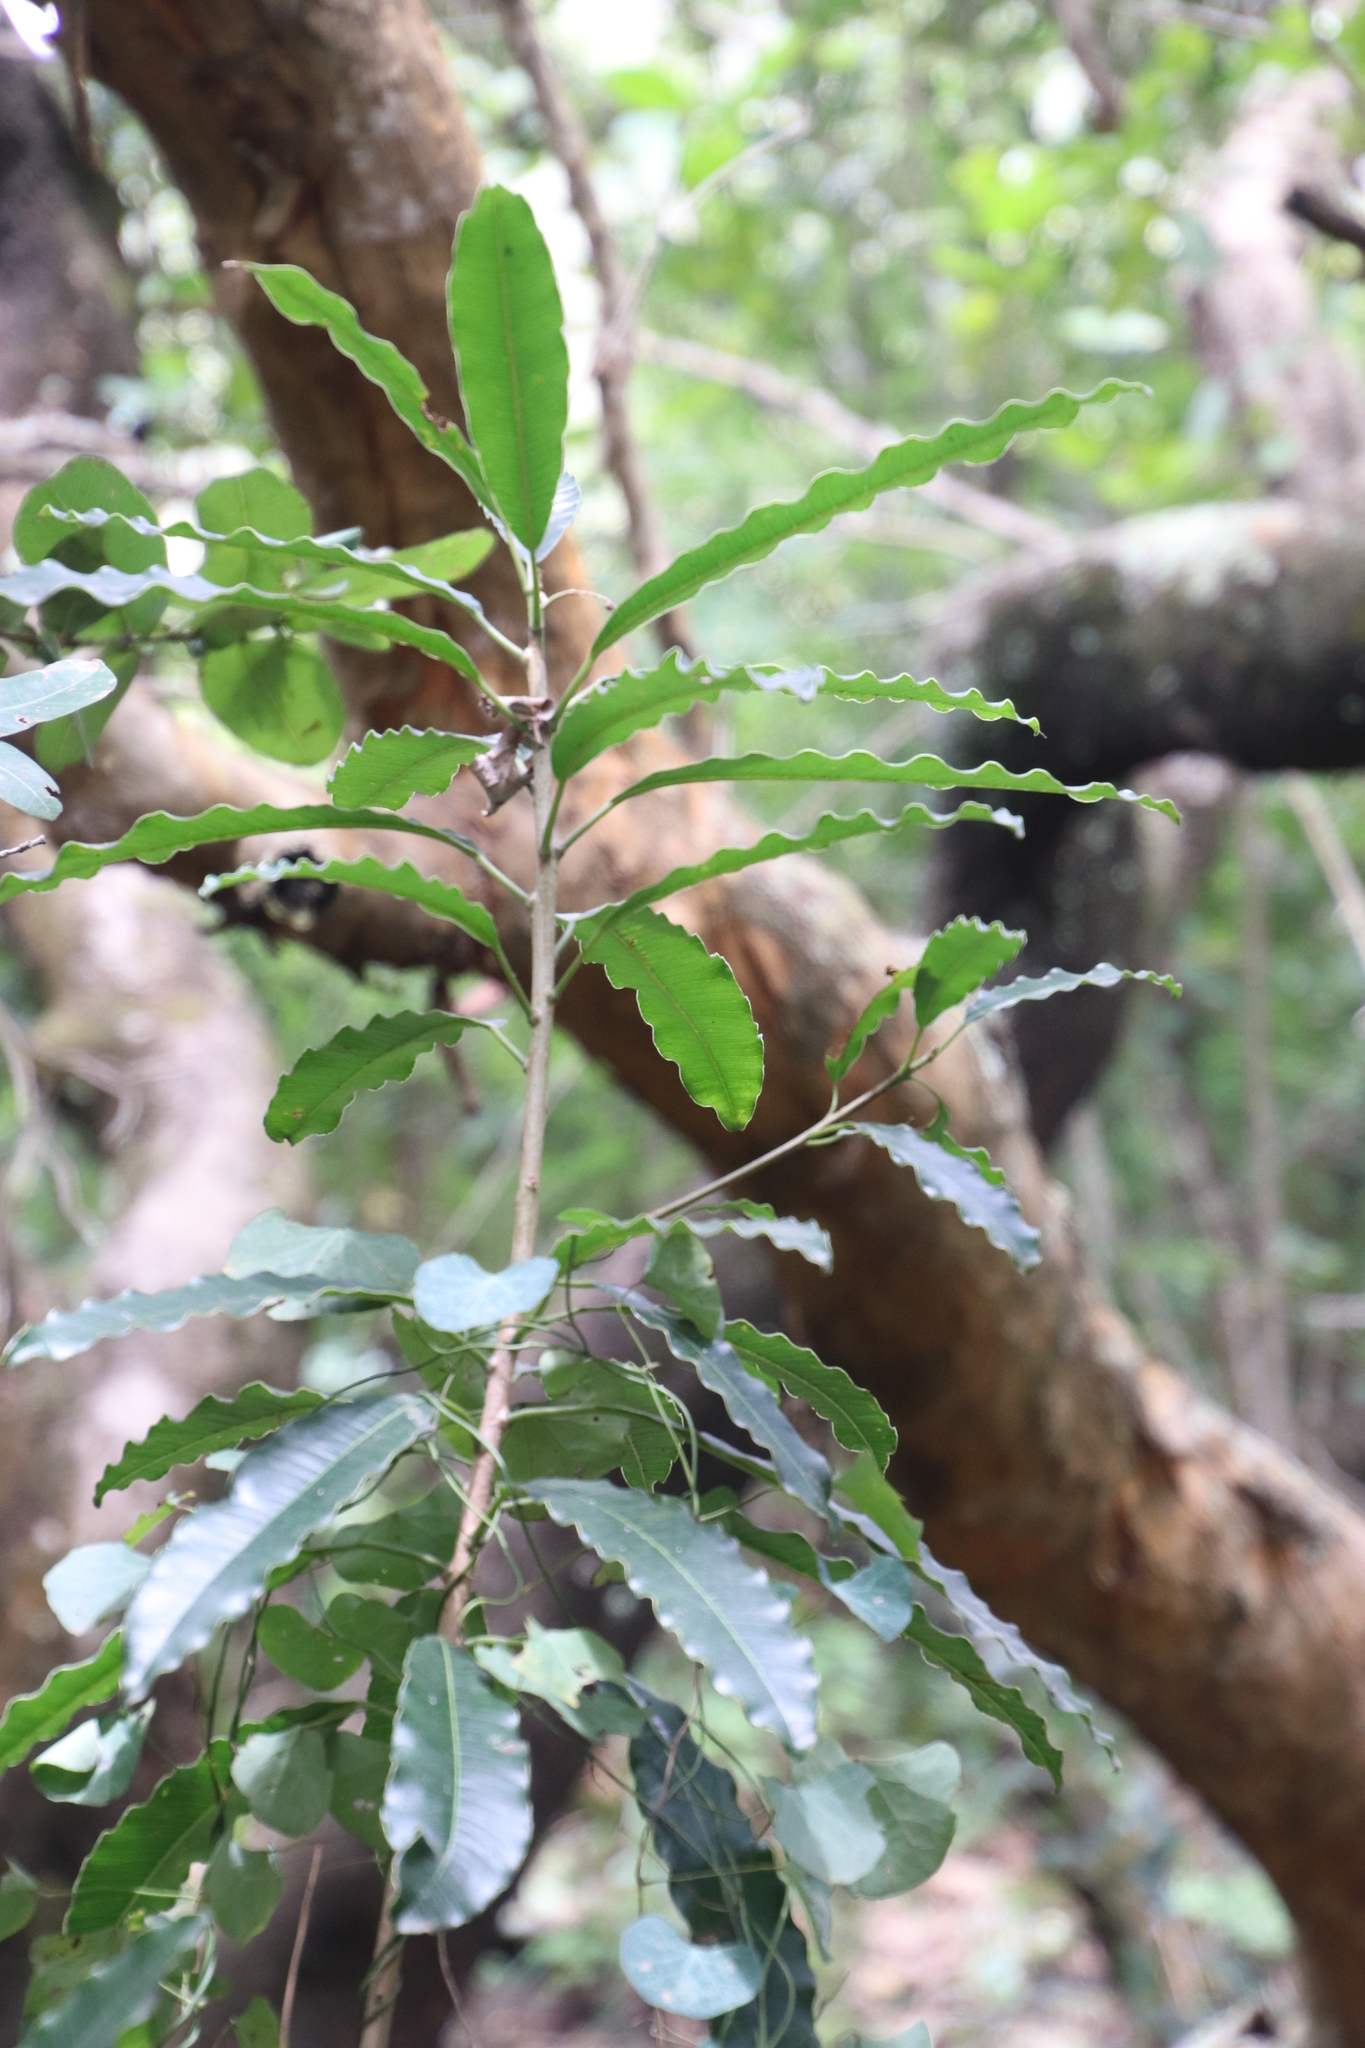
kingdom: Plantae
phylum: Tracheophyta
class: Magnoliopsida
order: Sapindales
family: Anacardiaceae
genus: Protorhus
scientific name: Protorhus longifolia
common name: Red-beech
